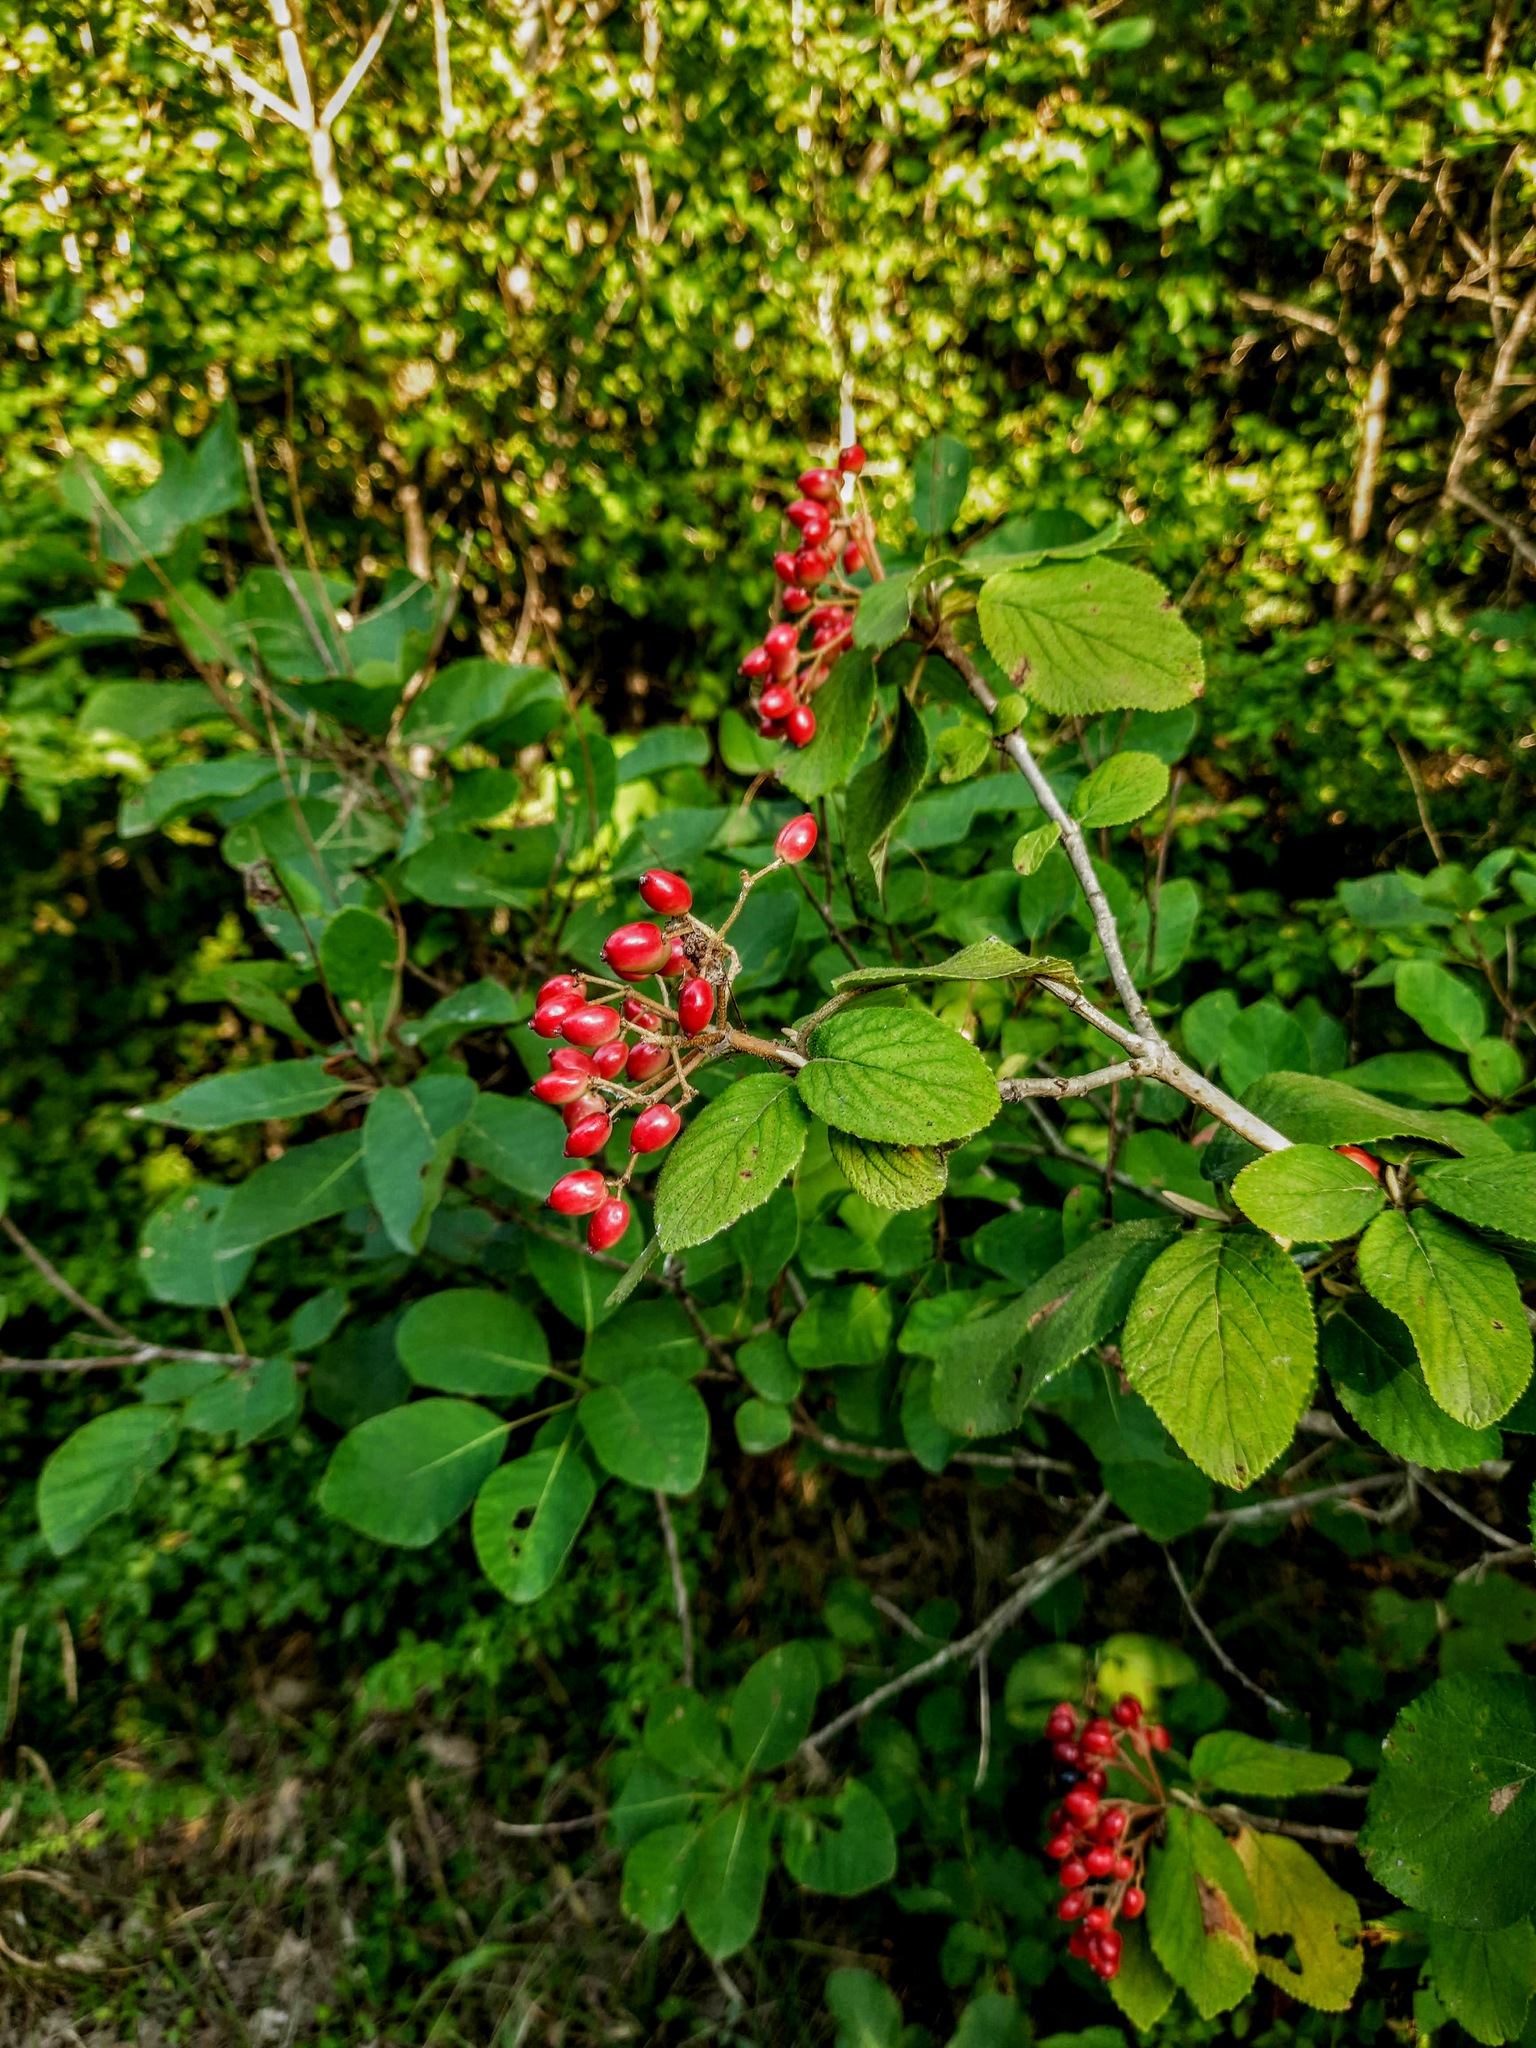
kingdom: Plantae
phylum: Tracheophyta
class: Magnoliopsida
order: Dipsacales
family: Viburnaceae
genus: Viburnum
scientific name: Viburnum lantana
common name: Wayfaring tree
